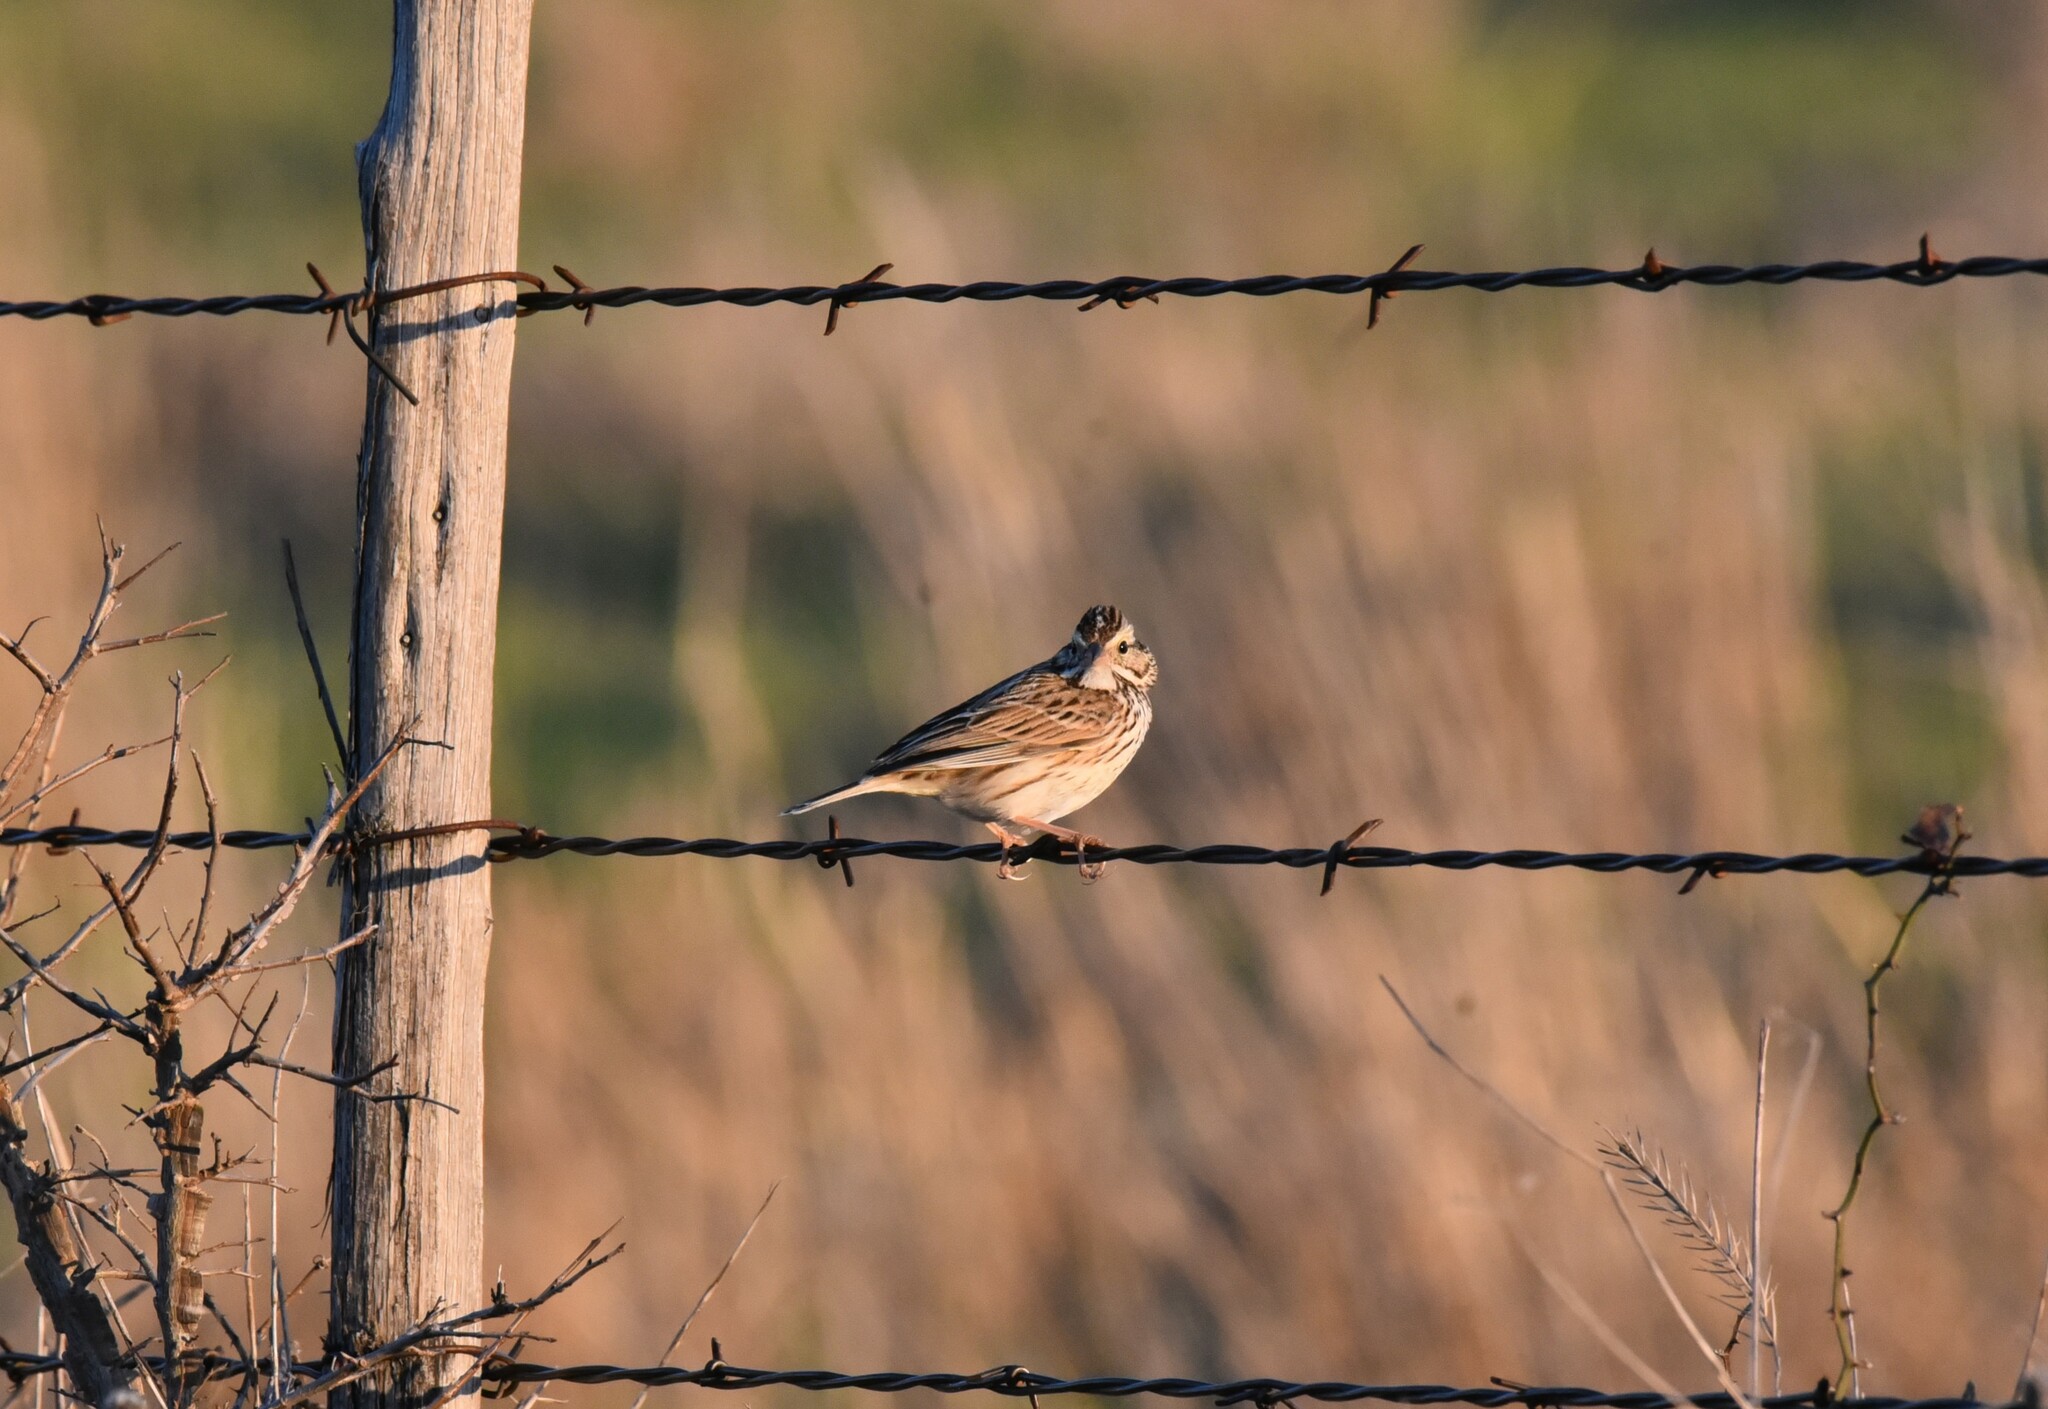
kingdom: Animalia
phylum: Chordata
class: Aves
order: Passeriformes
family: Passerellidae
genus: Passerculus
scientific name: Passerculus sandwichensis
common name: Savannah sparrow
